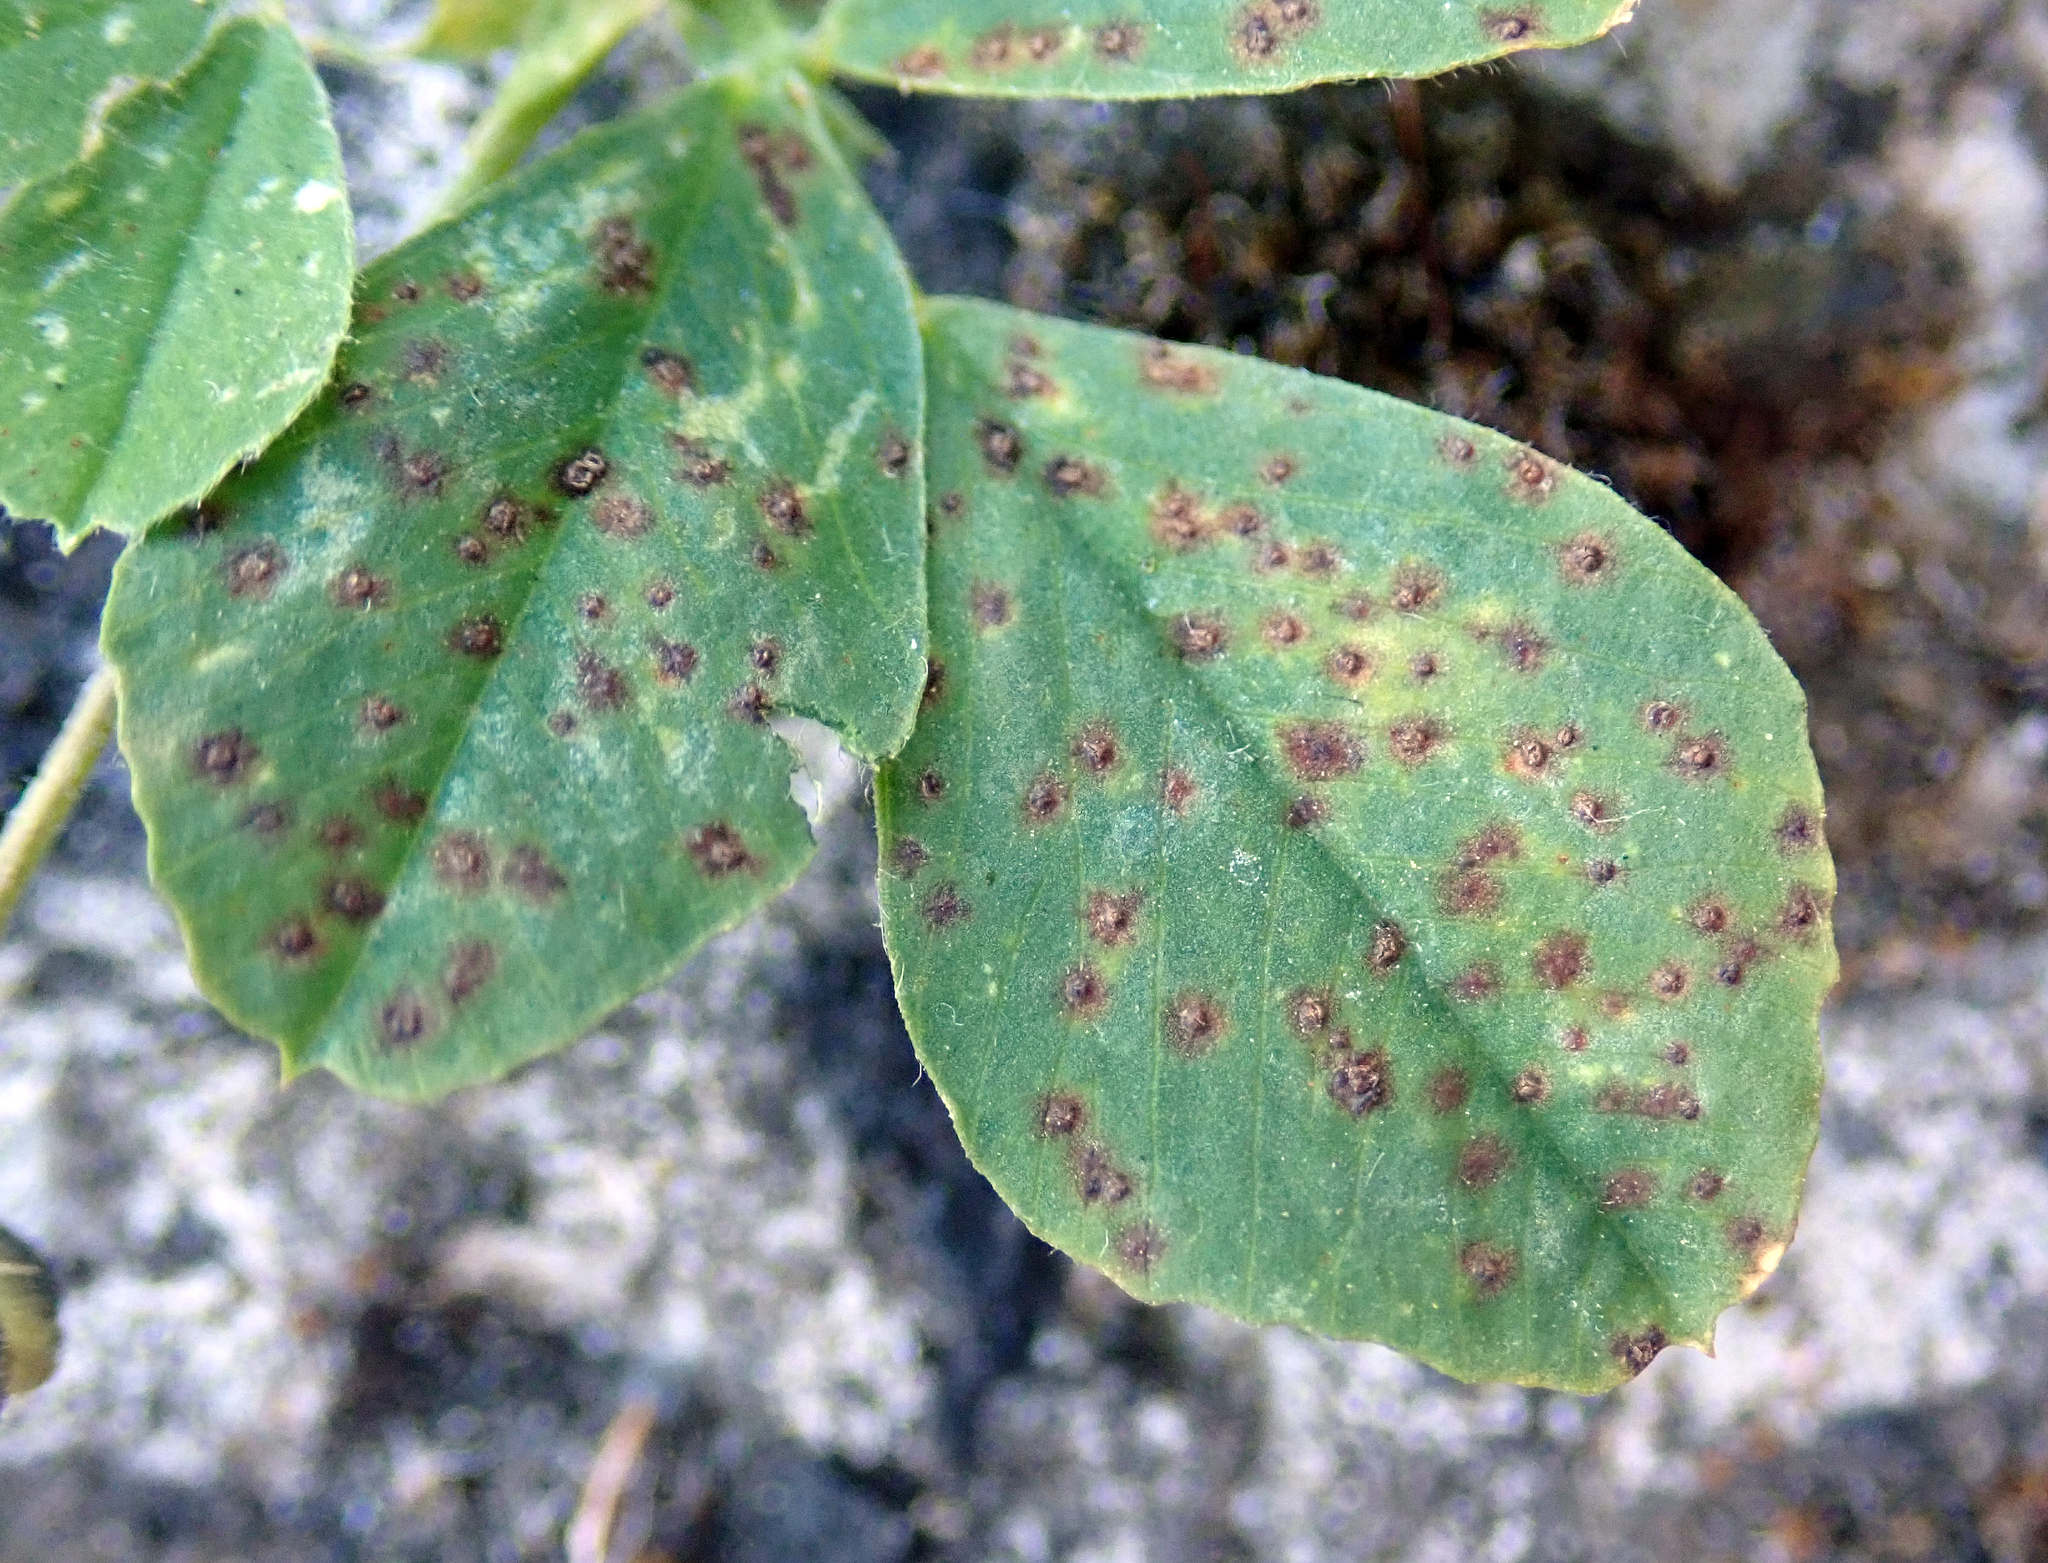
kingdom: Fungi
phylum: Basidiomycota
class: Pucciniomycetes
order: Pucciniales
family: Pucciniaceae
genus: Uromyces
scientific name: Uromyces striatus
